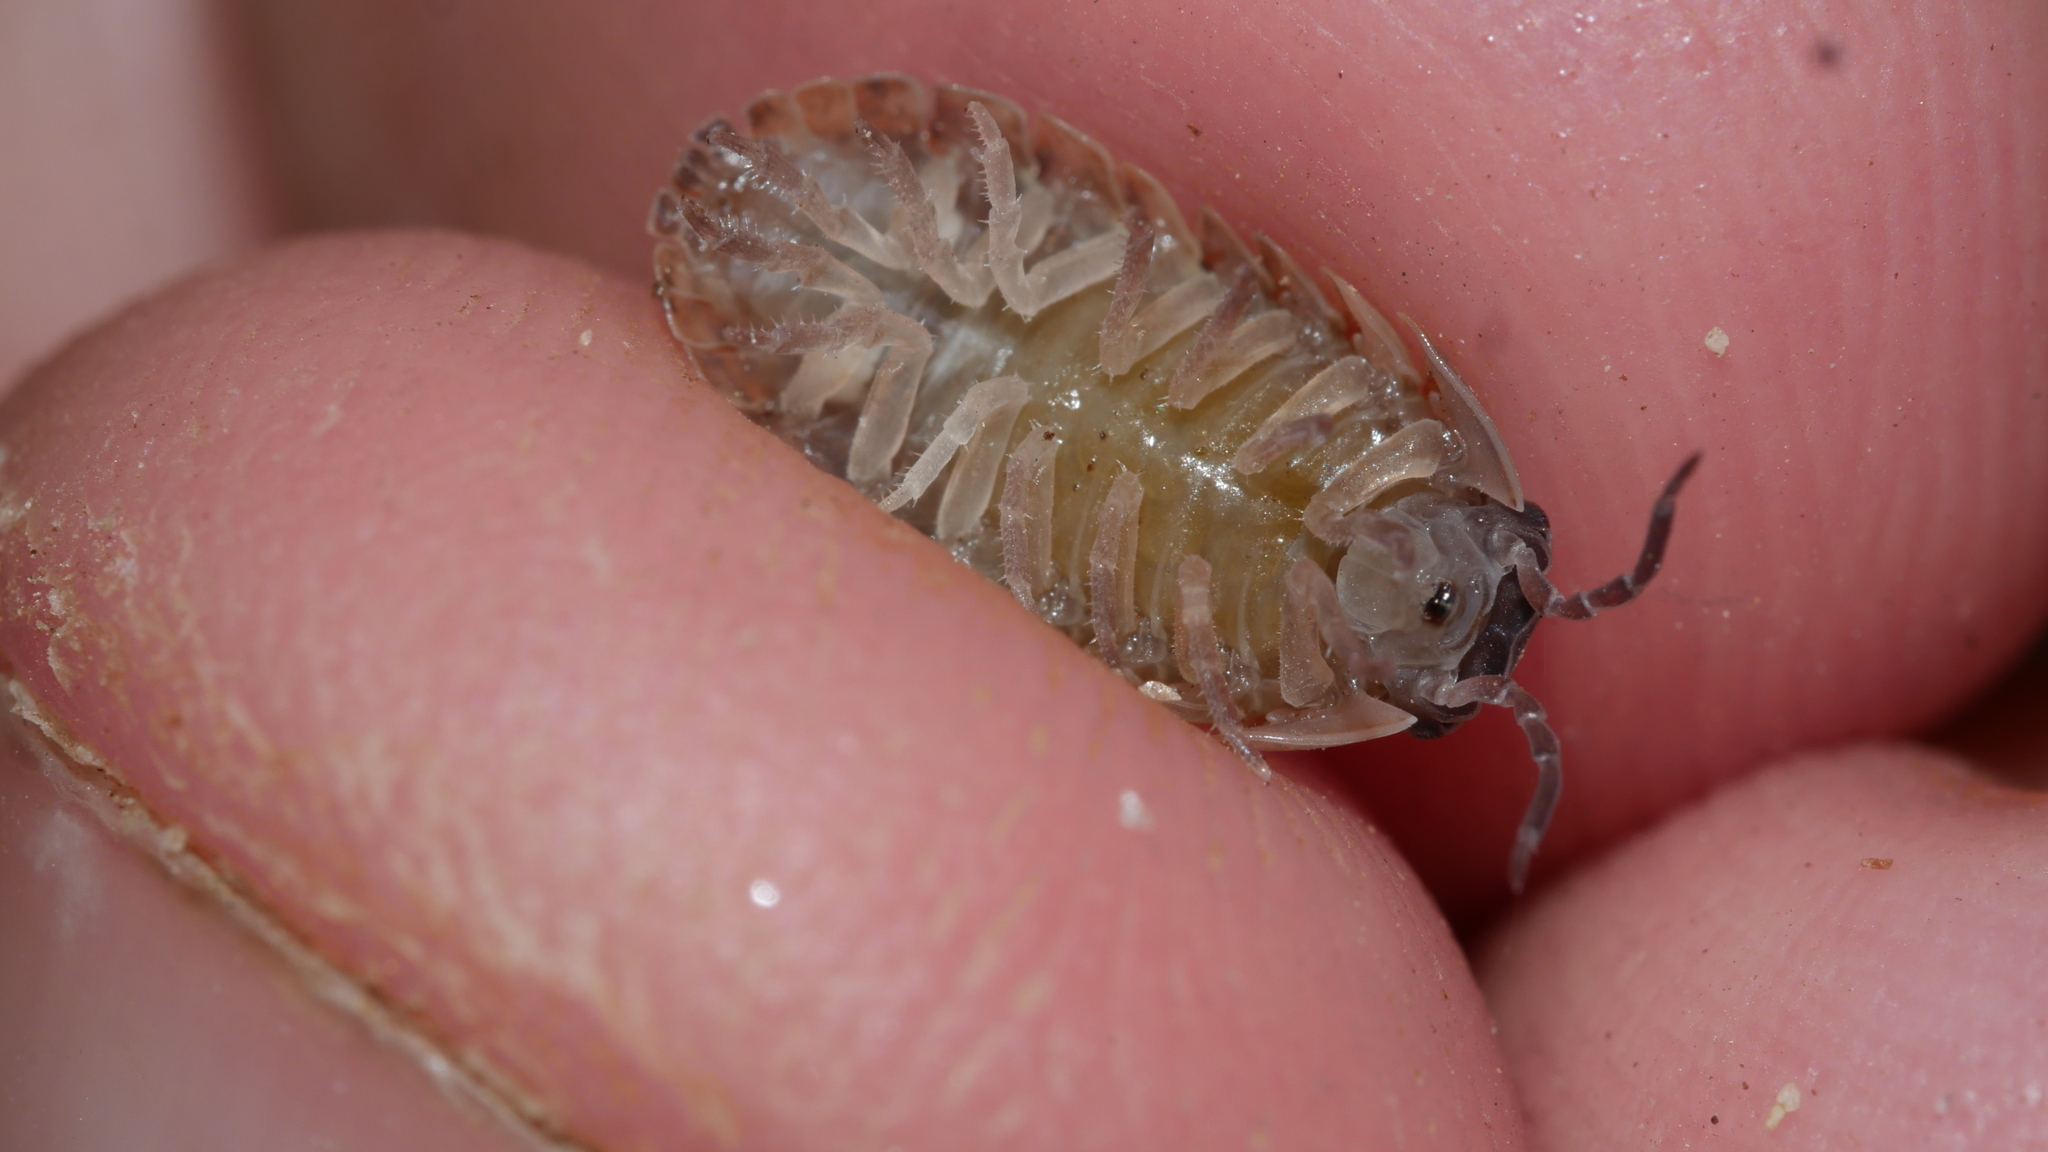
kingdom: Animalia
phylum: Arthropoda
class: Malacostraca
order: Isopoda
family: Armadillidiidae
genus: Armadillidium
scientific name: Armadillidium vulgare
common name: Common pill woodlouse
